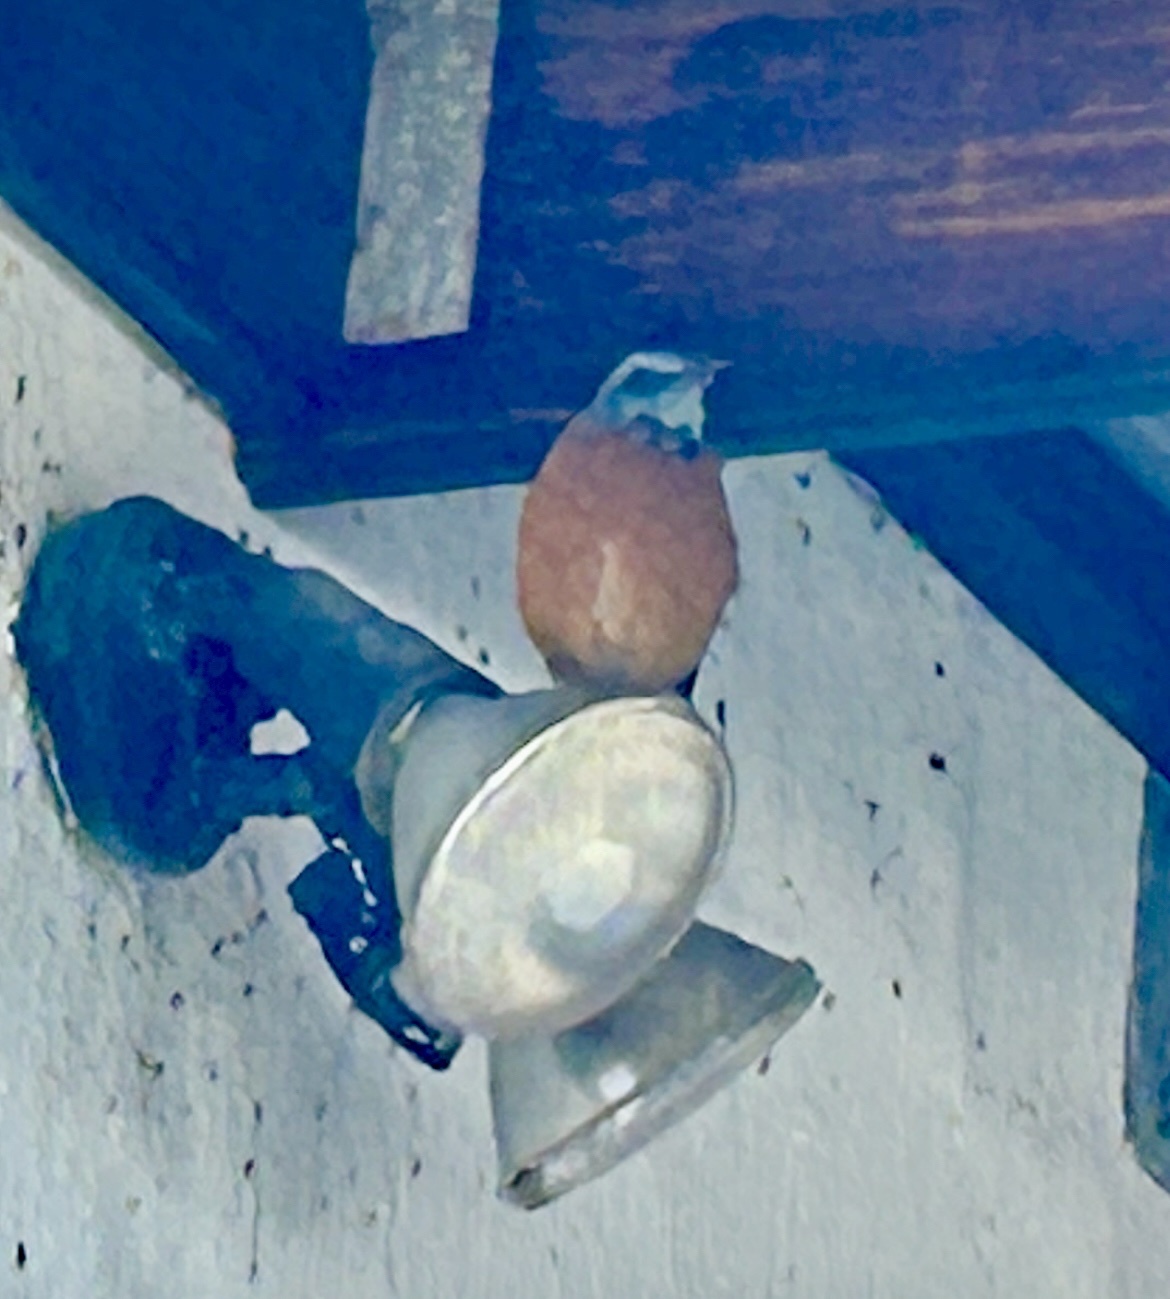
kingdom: Animalia
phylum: Chordata
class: Aves
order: Passeriformes
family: Muscicapidae
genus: Monticola
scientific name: Monticola rupestris
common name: Cape rock thrush
